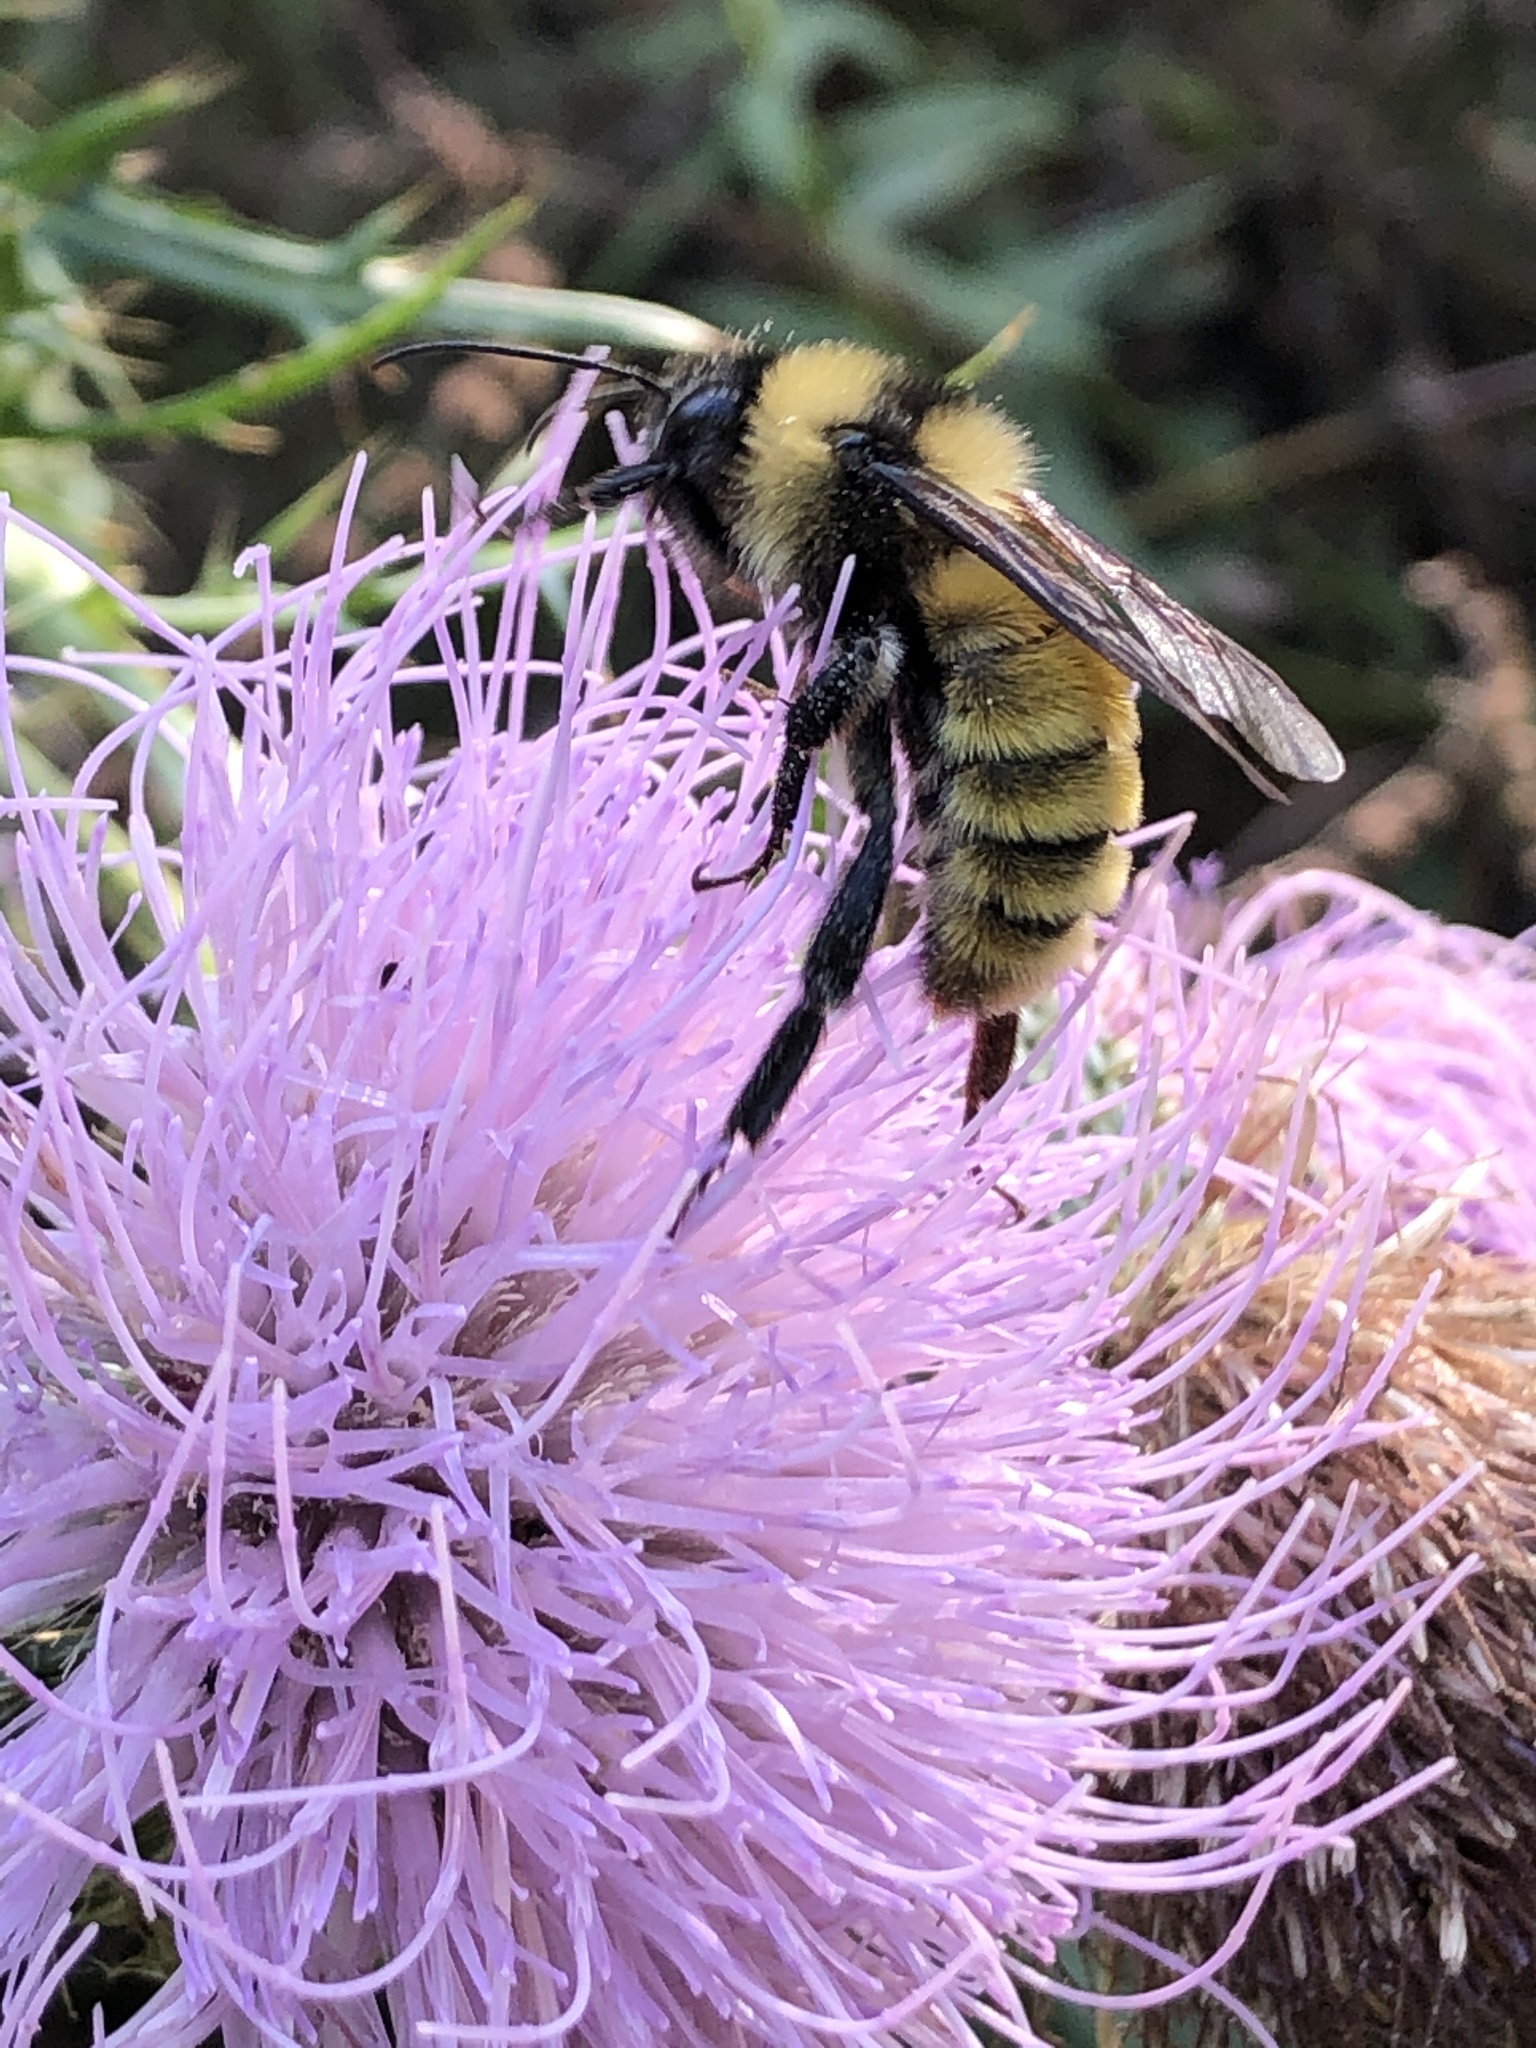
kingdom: Animalia
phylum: Arthropoda
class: Insecta
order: Hymenoptera
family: Apidae
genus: Bombus
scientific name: Bombus pensylvanicus
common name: Bumble bee
